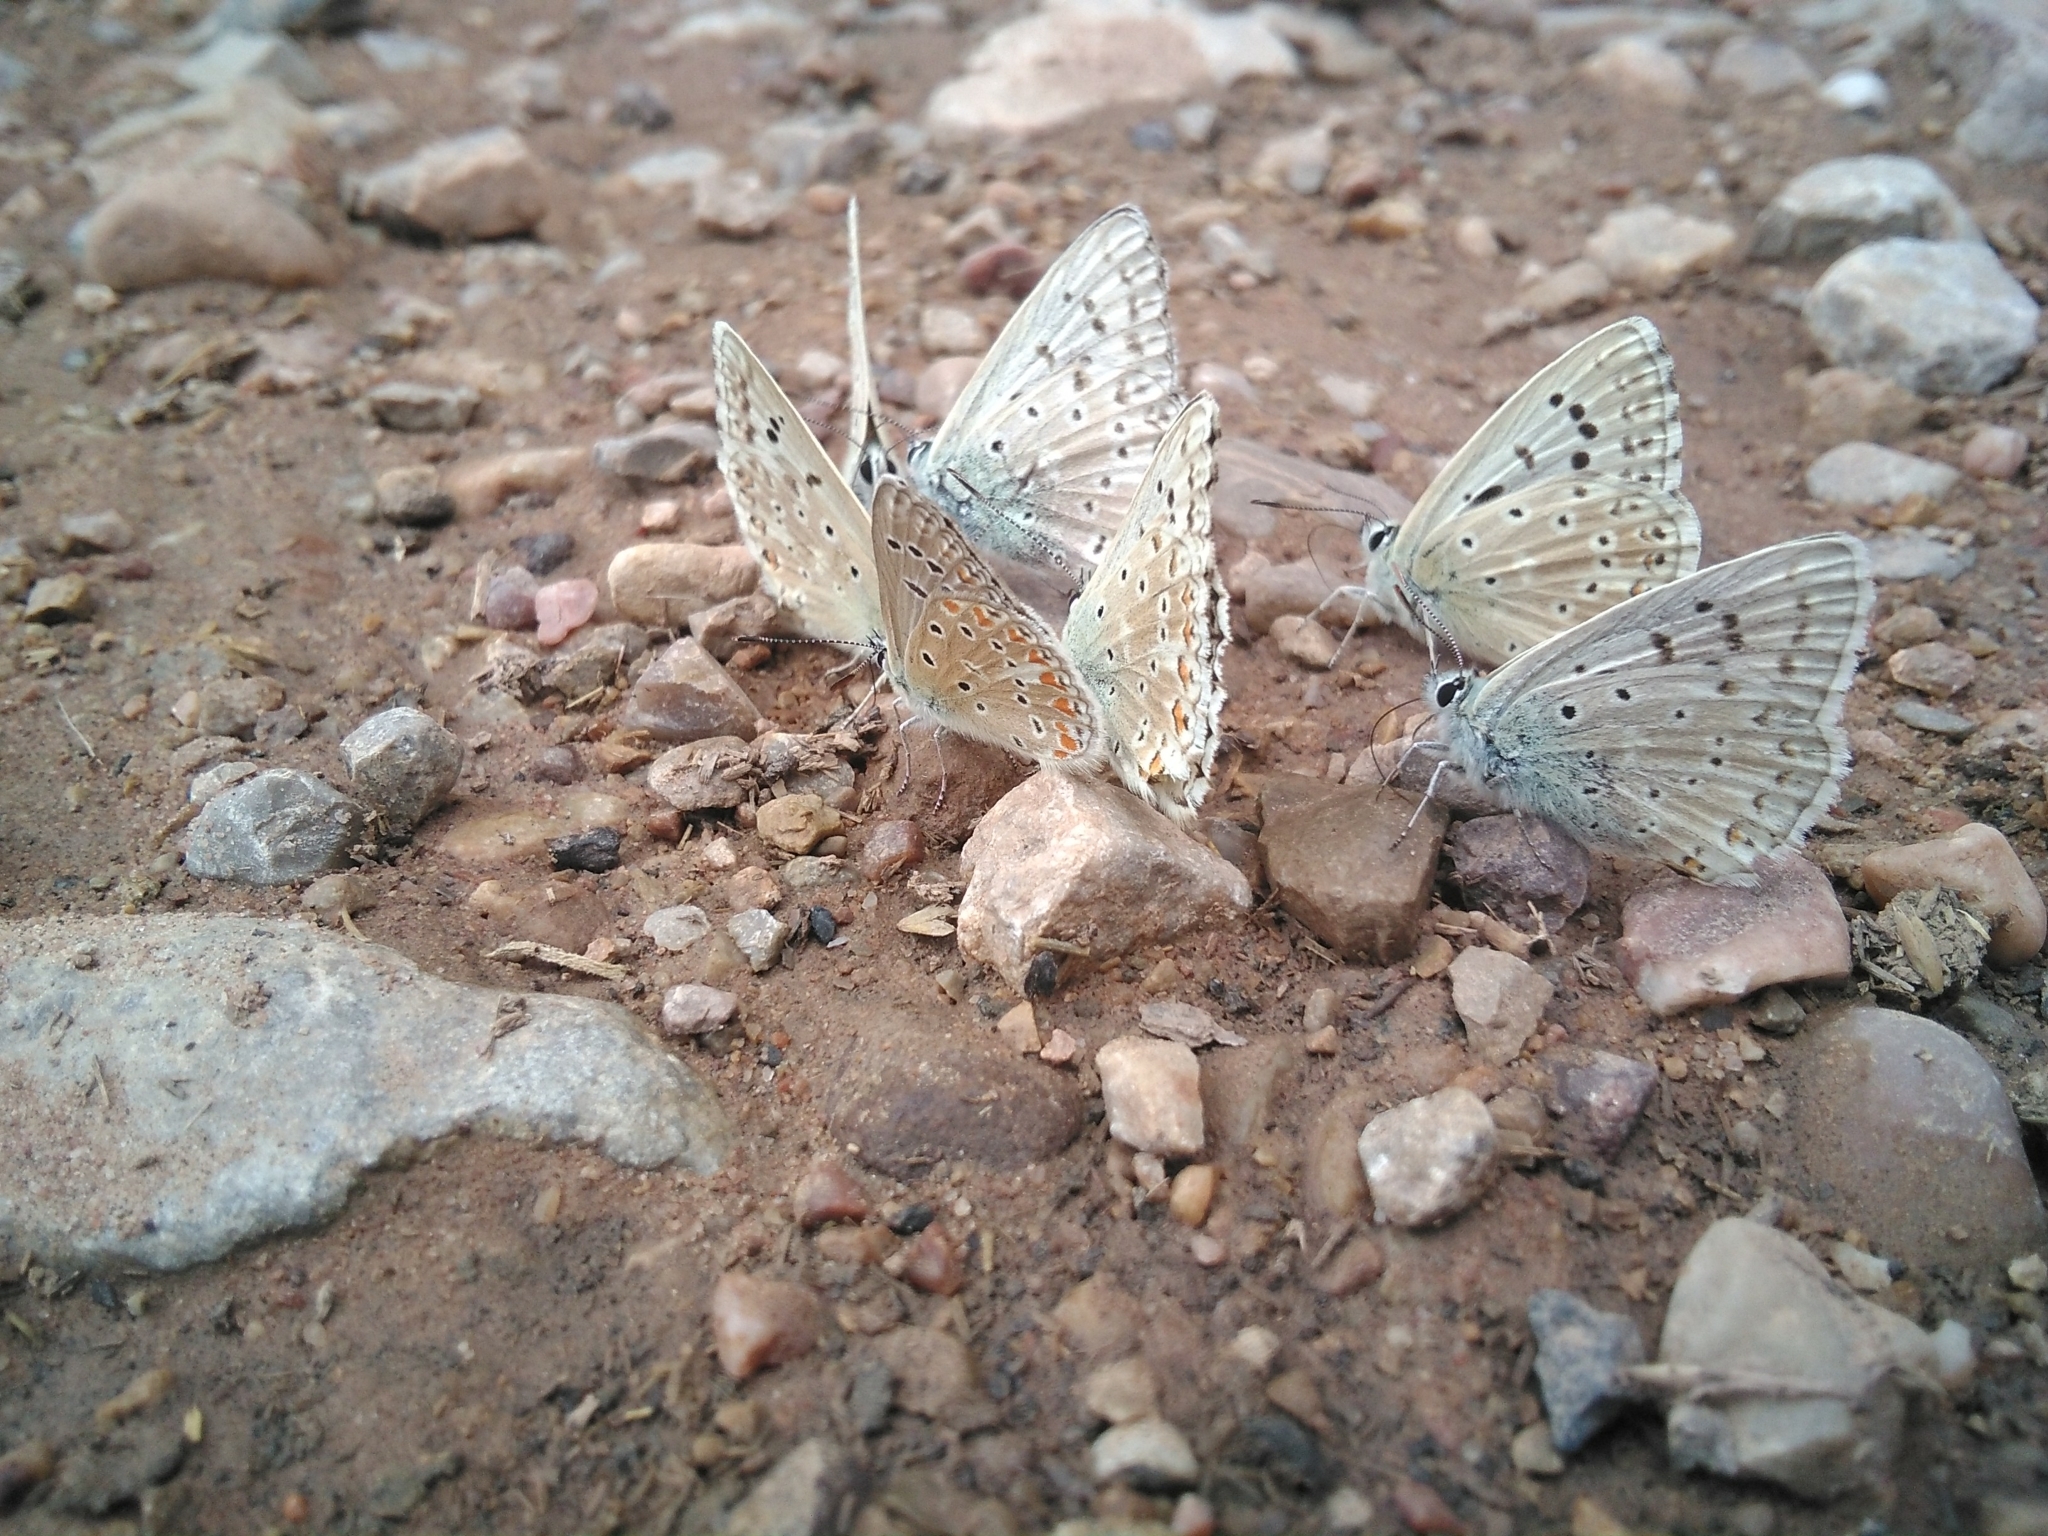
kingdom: Animalia
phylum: Arthropoda
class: Insecta
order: Lepidoptera
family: Lycaenidae
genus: Lysandra
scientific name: Lysandra albicans
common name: Spanish chalkhill blue
